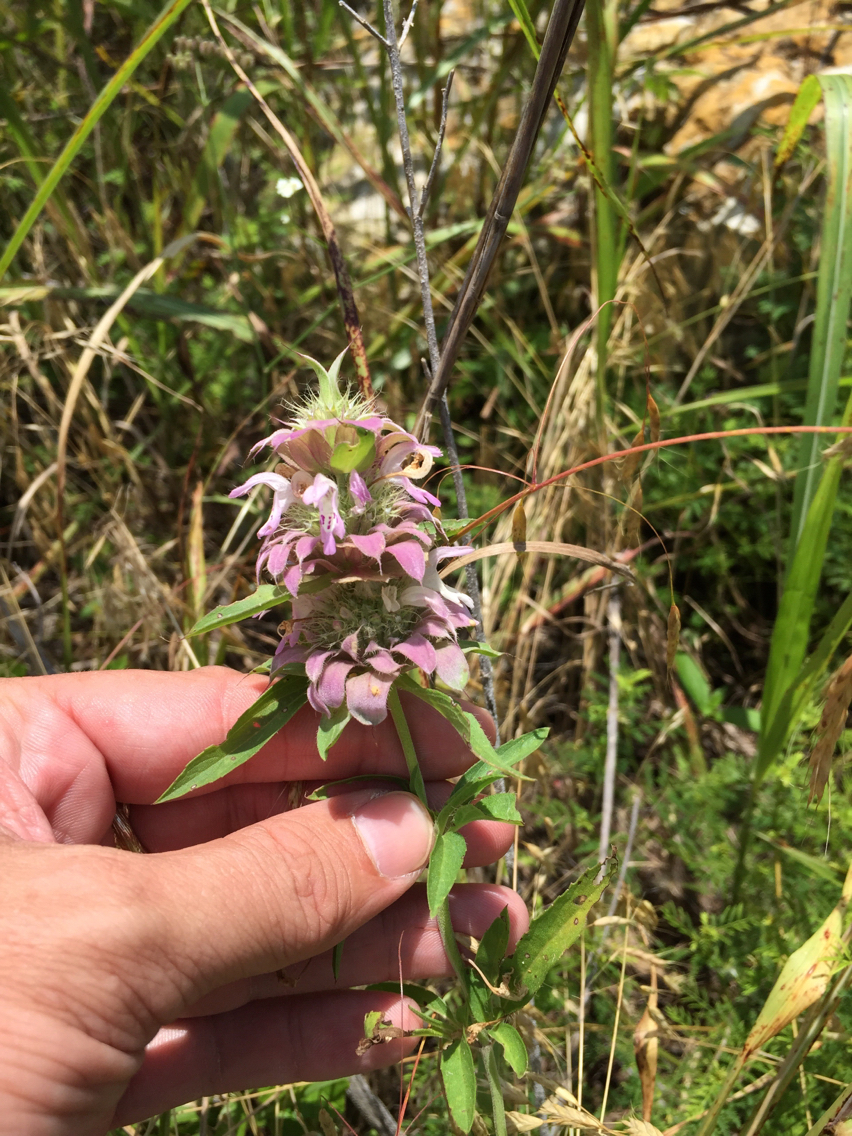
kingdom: Plantae
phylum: Tracheophyta
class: Magnoliopsida
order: Lamiales
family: Lamiaceae
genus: Monarda
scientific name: Monarda citriodora
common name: Lemon beebalm
